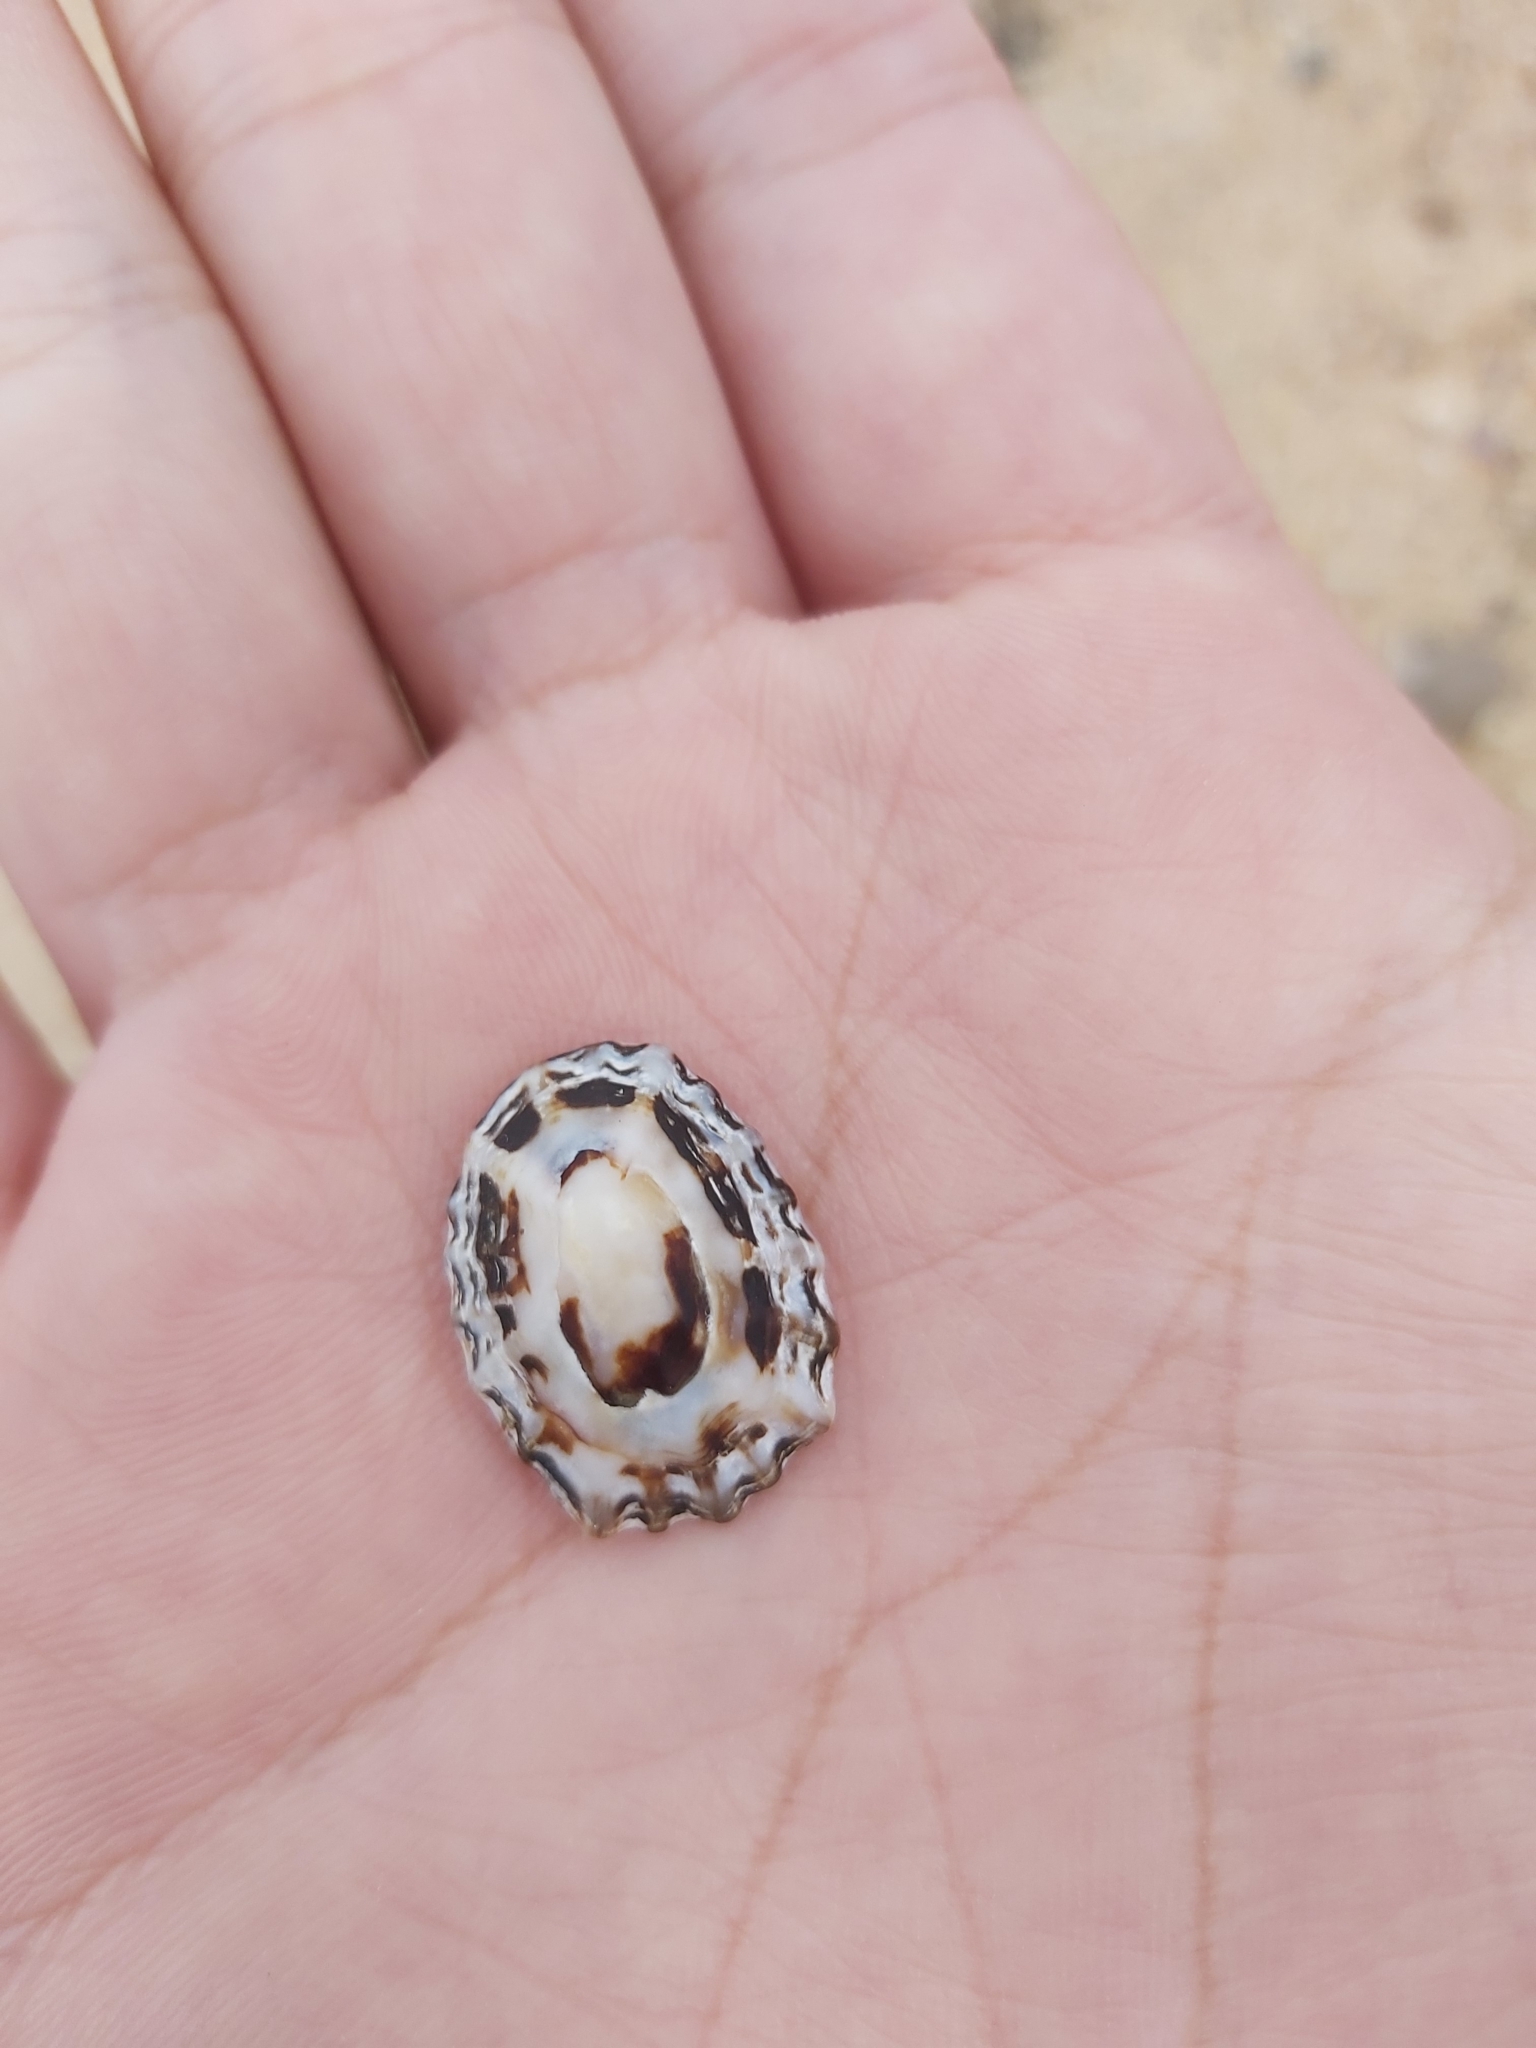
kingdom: Animalia
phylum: Mollusca
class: Gastropoda
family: Lottiidae
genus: Patelloida
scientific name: Patelloida alticostata
